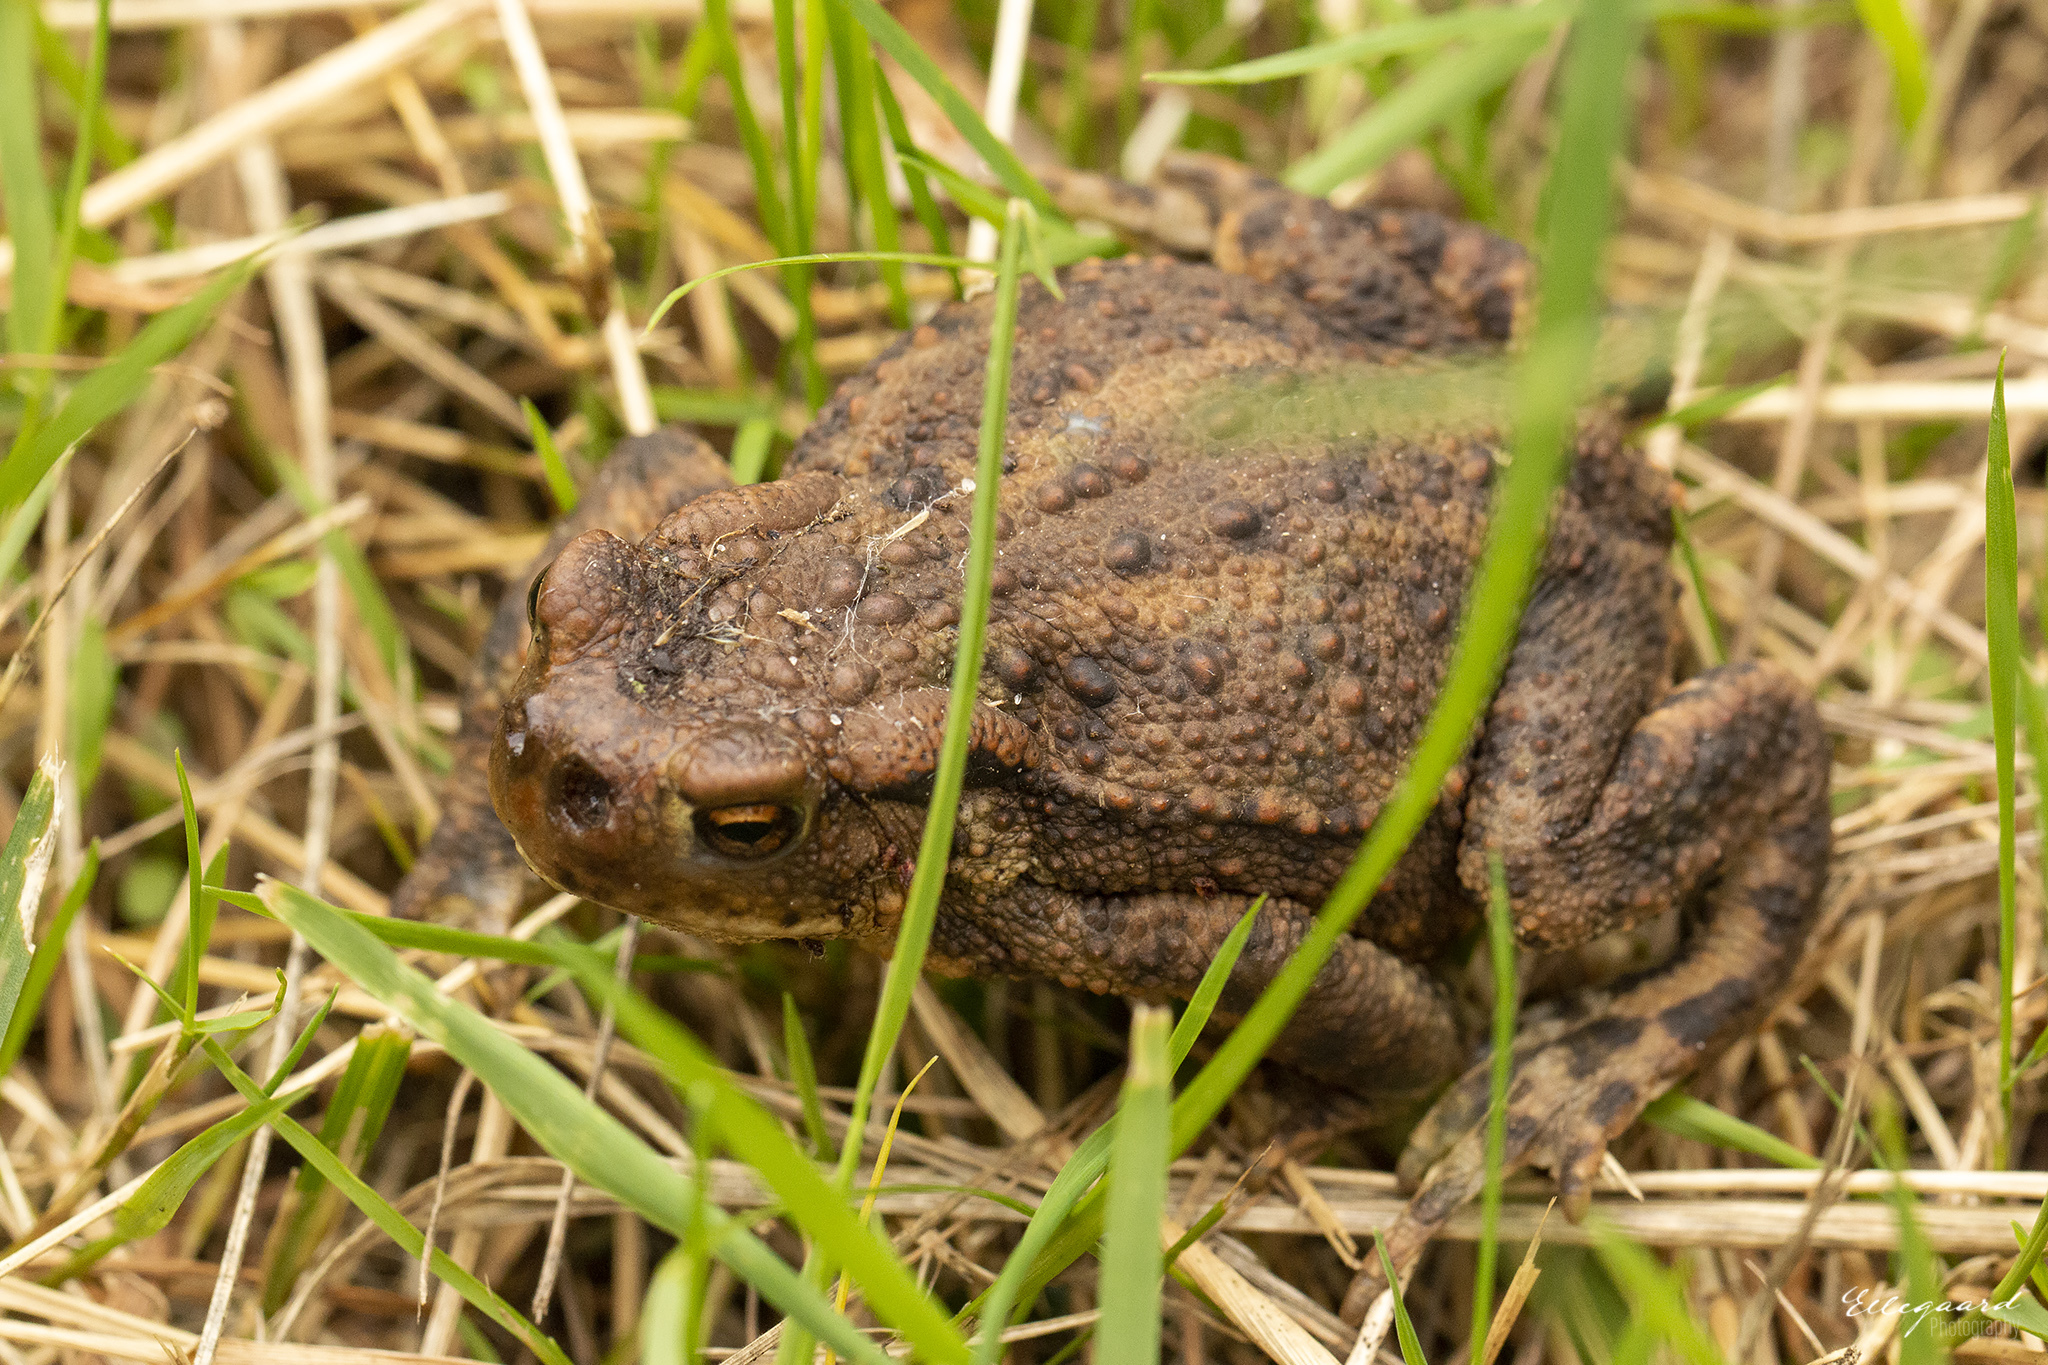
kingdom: Animalia
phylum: Chordata
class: Amphibia
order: Anura
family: Bufonidae
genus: Bufo
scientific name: Bufo bufo
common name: Common toad
